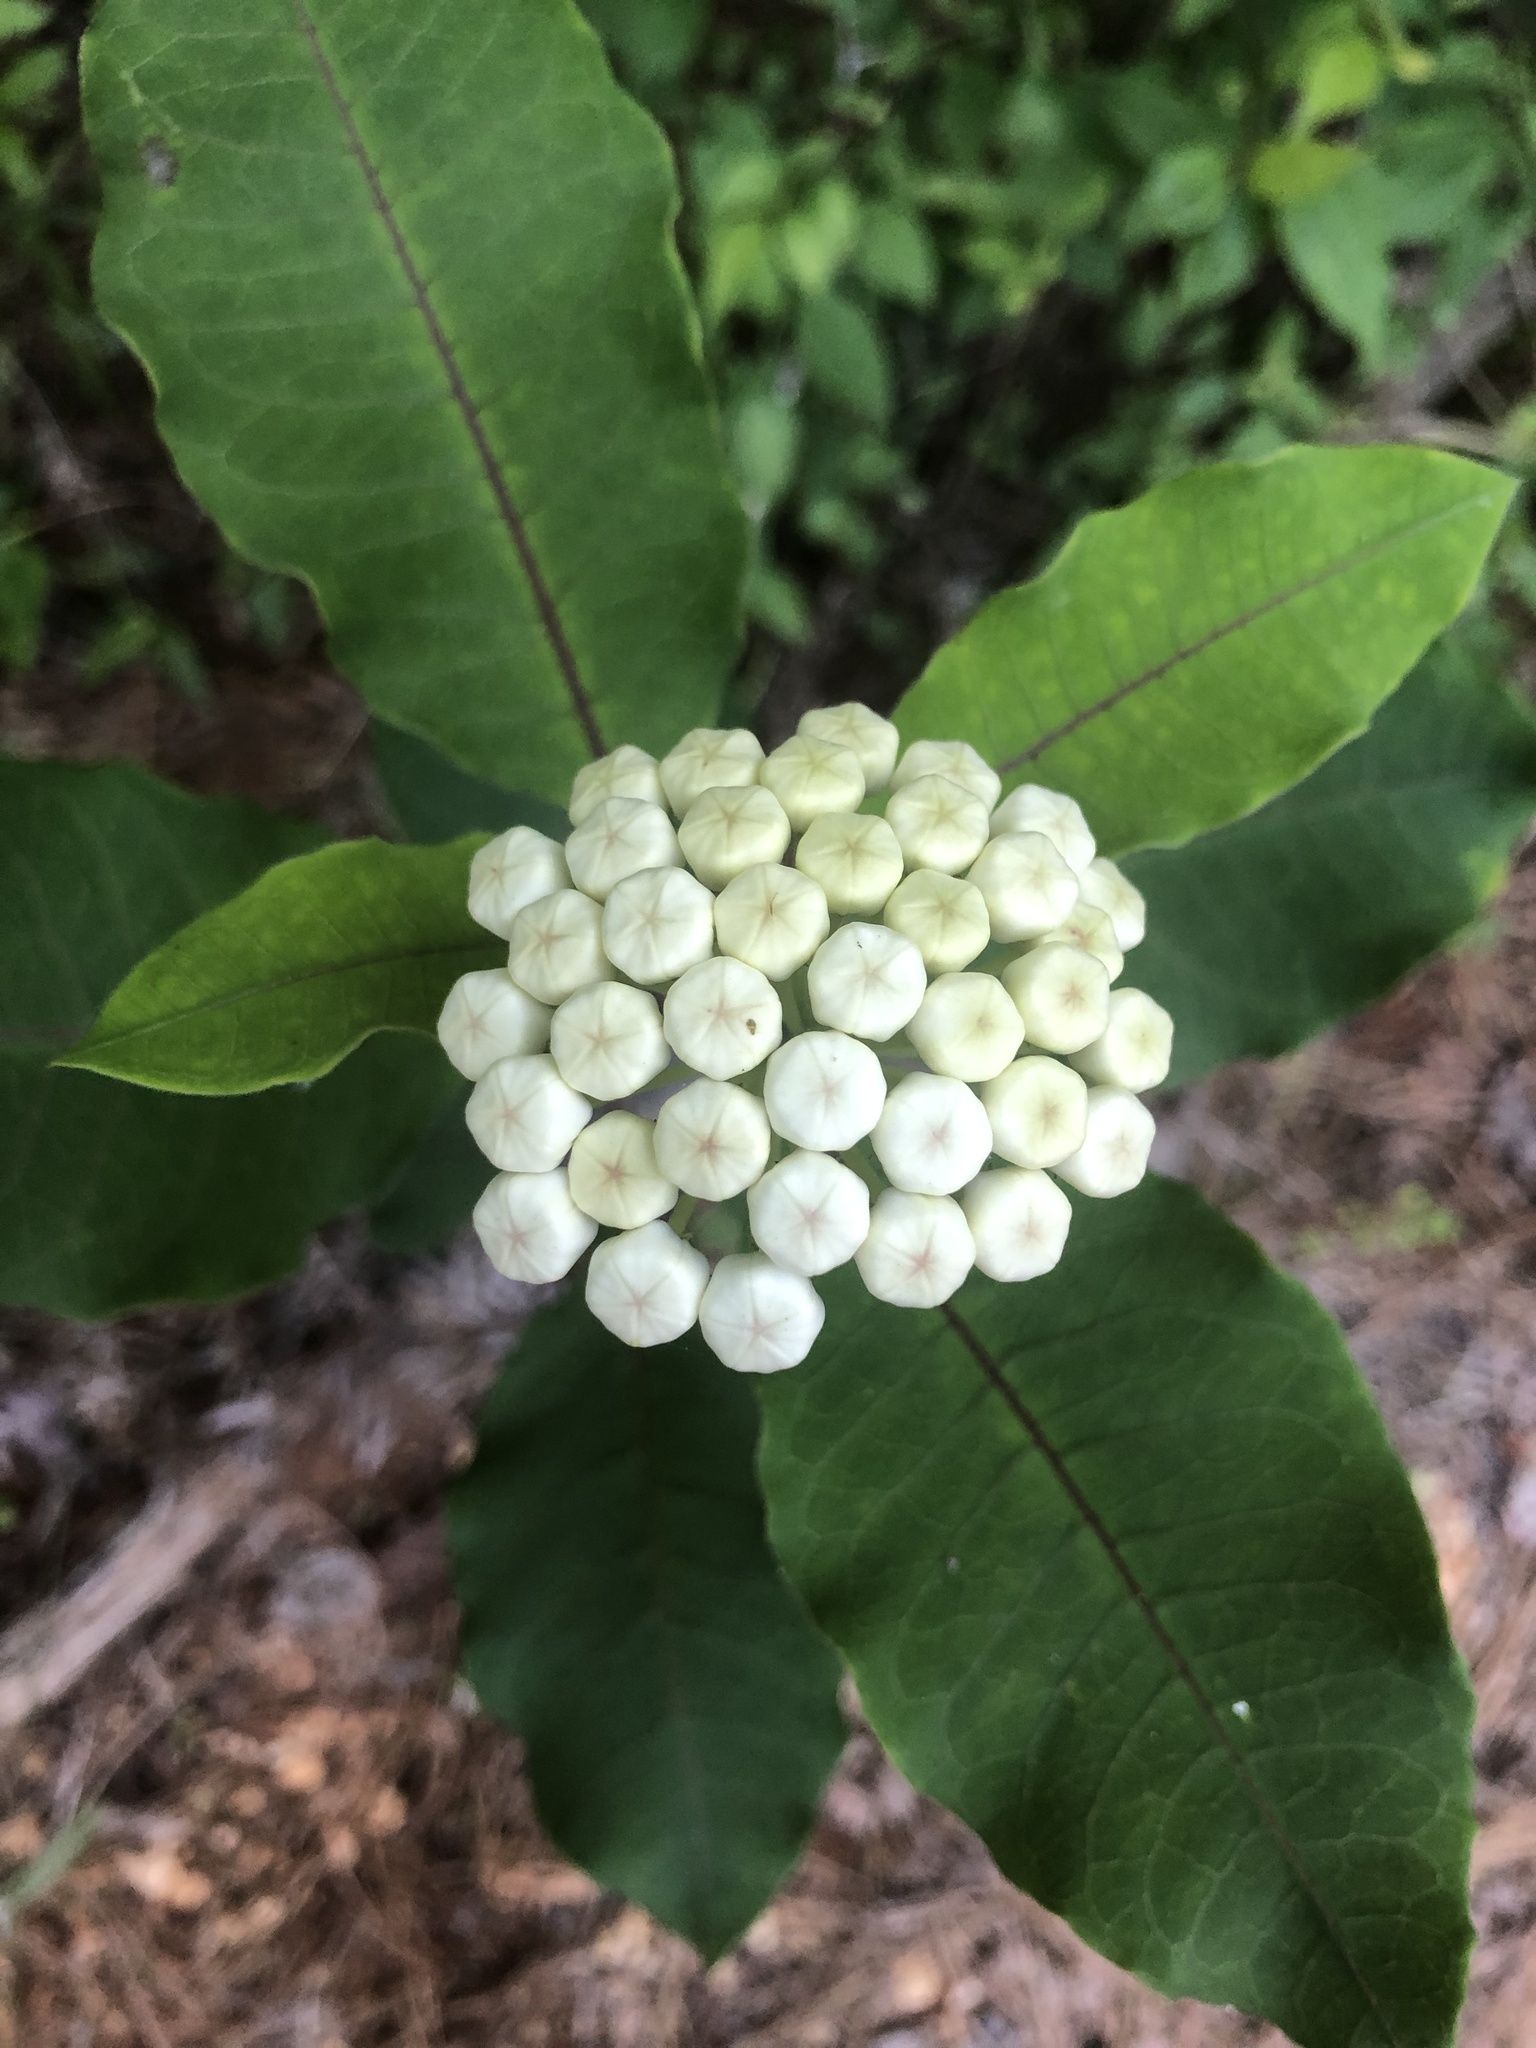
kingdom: Plantae
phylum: Tracheophyta
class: Magnoliopsida
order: Gentianales
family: Apocynaceae
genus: Asclepias
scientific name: Asclepias variegata
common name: Variegated milkweed
